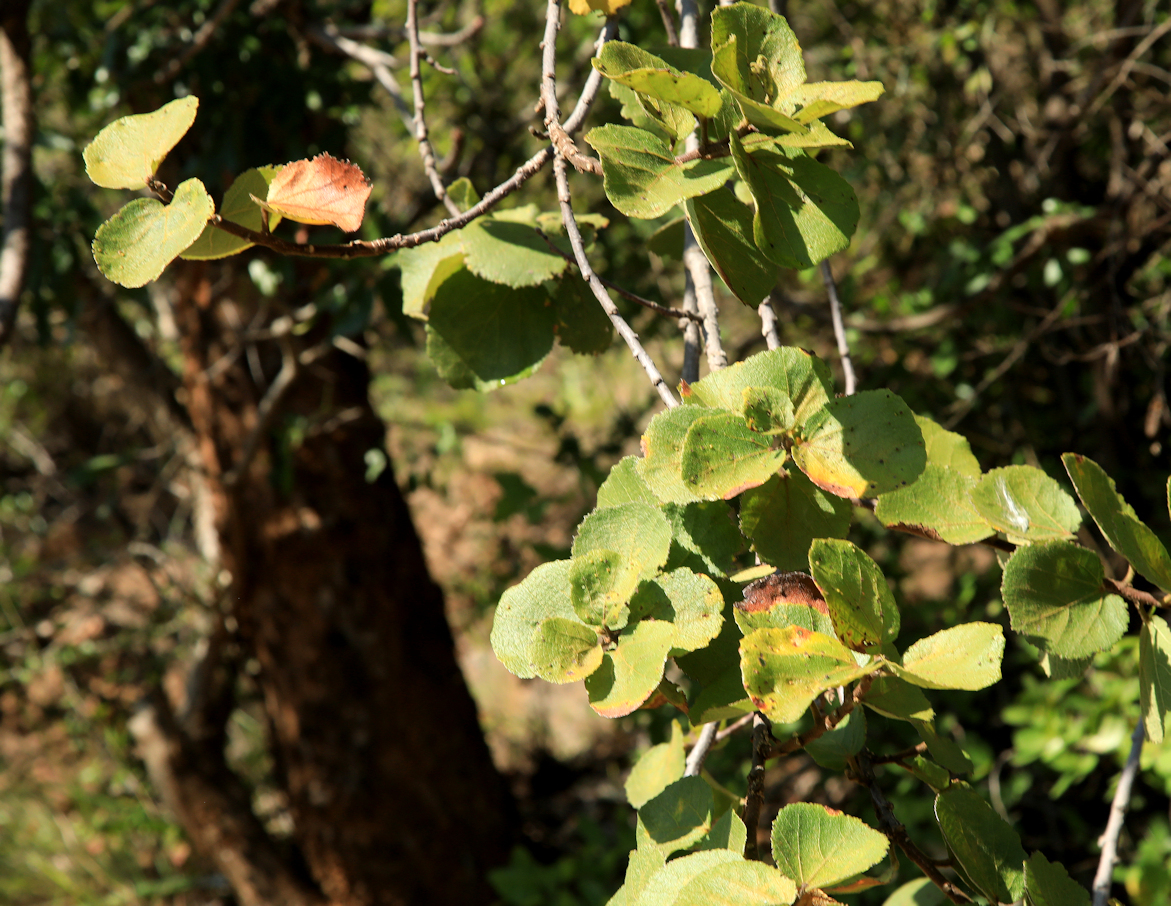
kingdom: Plantae
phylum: Tracheophyta
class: Magnoliopsida
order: Malvales
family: Malvaceae
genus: Dombeya
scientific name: Dombeya rotundifolia
